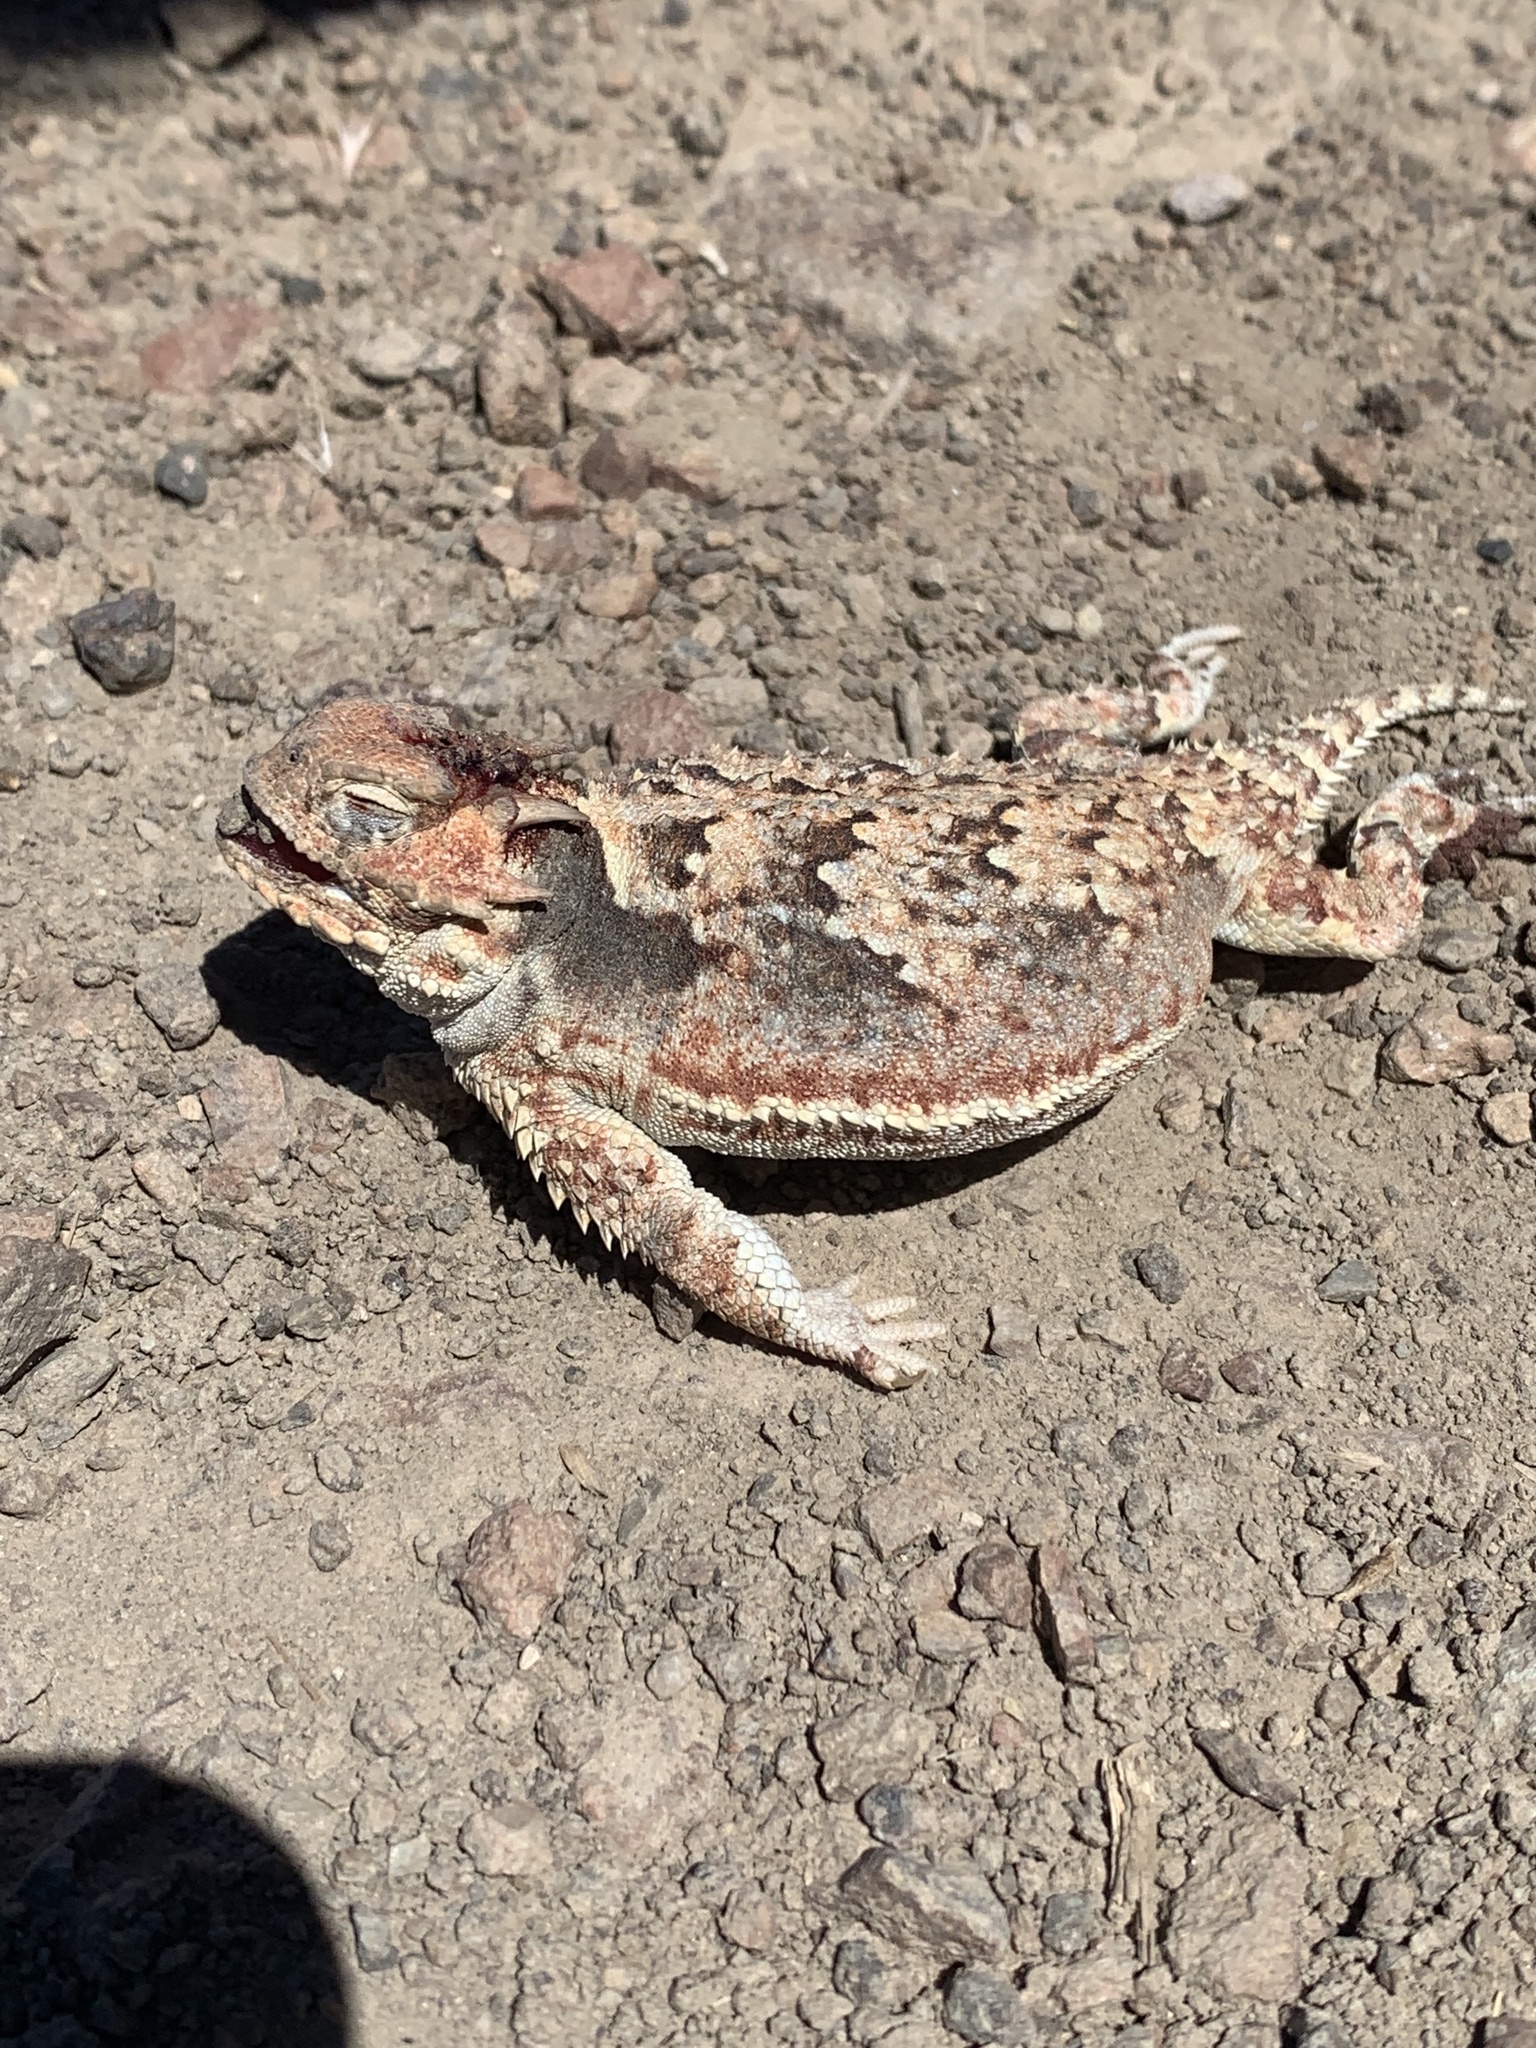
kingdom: Animalia
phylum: Chordata
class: Squamata
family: Phrynosomatidae
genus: Phrynosoma
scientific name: Phrynosoma platyrhinos
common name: Desert horned lizard
